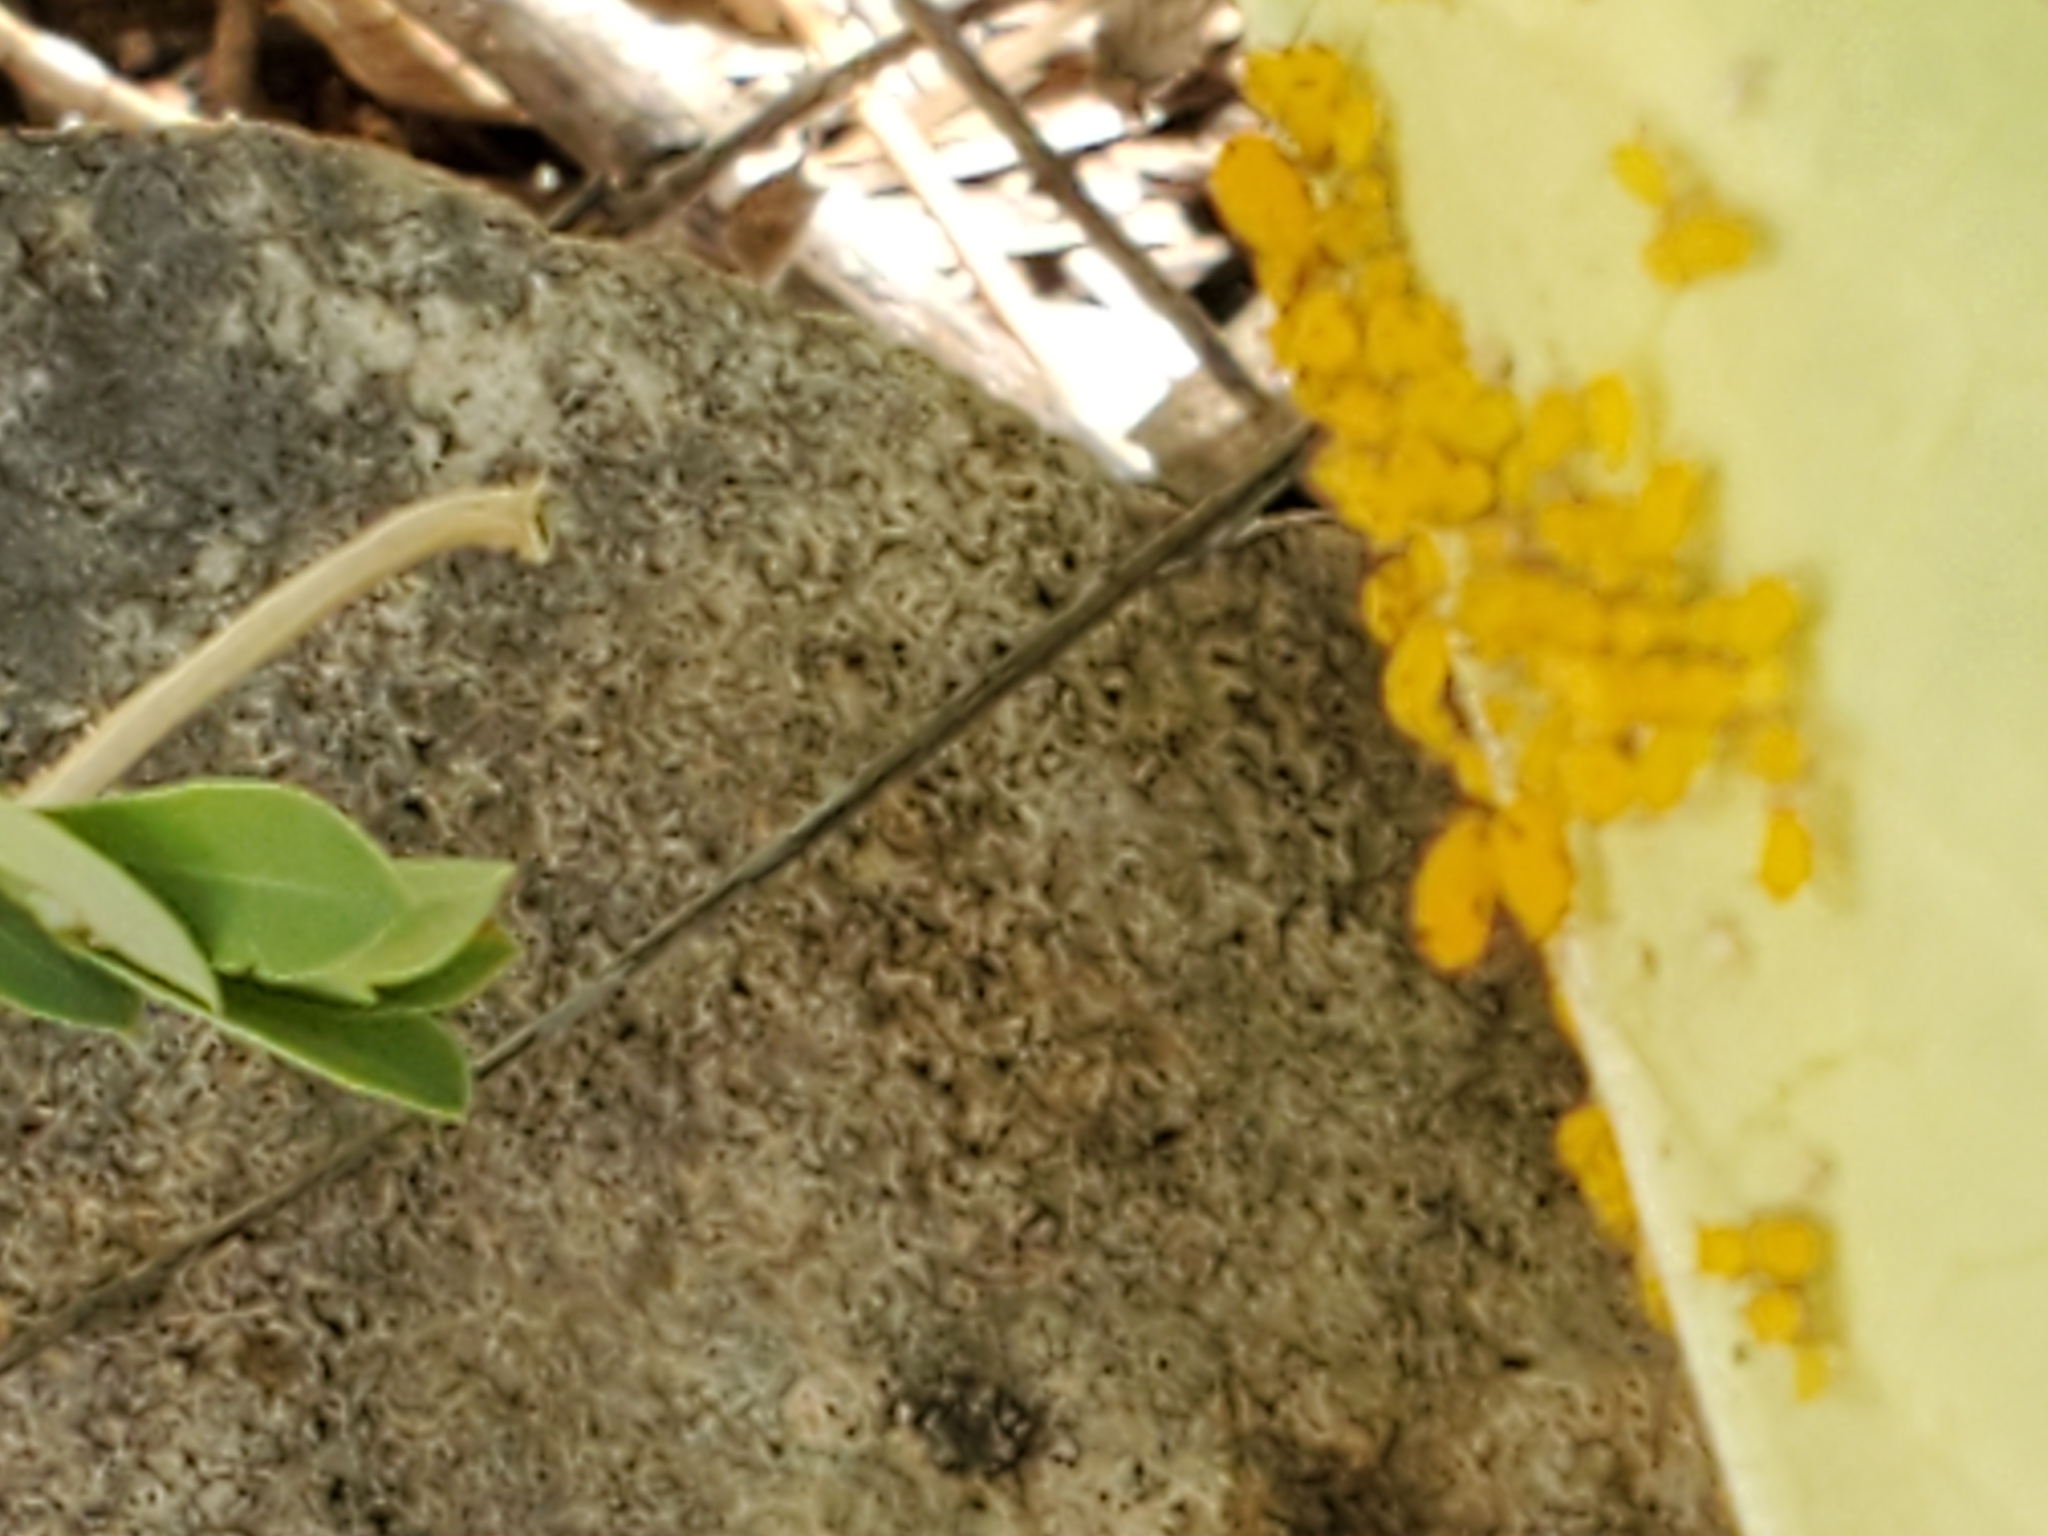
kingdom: Animalia
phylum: Arthropoda
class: Insecta
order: Hemiptera
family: Aphididae
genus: Aphis
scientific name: Aphis nerii
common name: Oleander aphid
